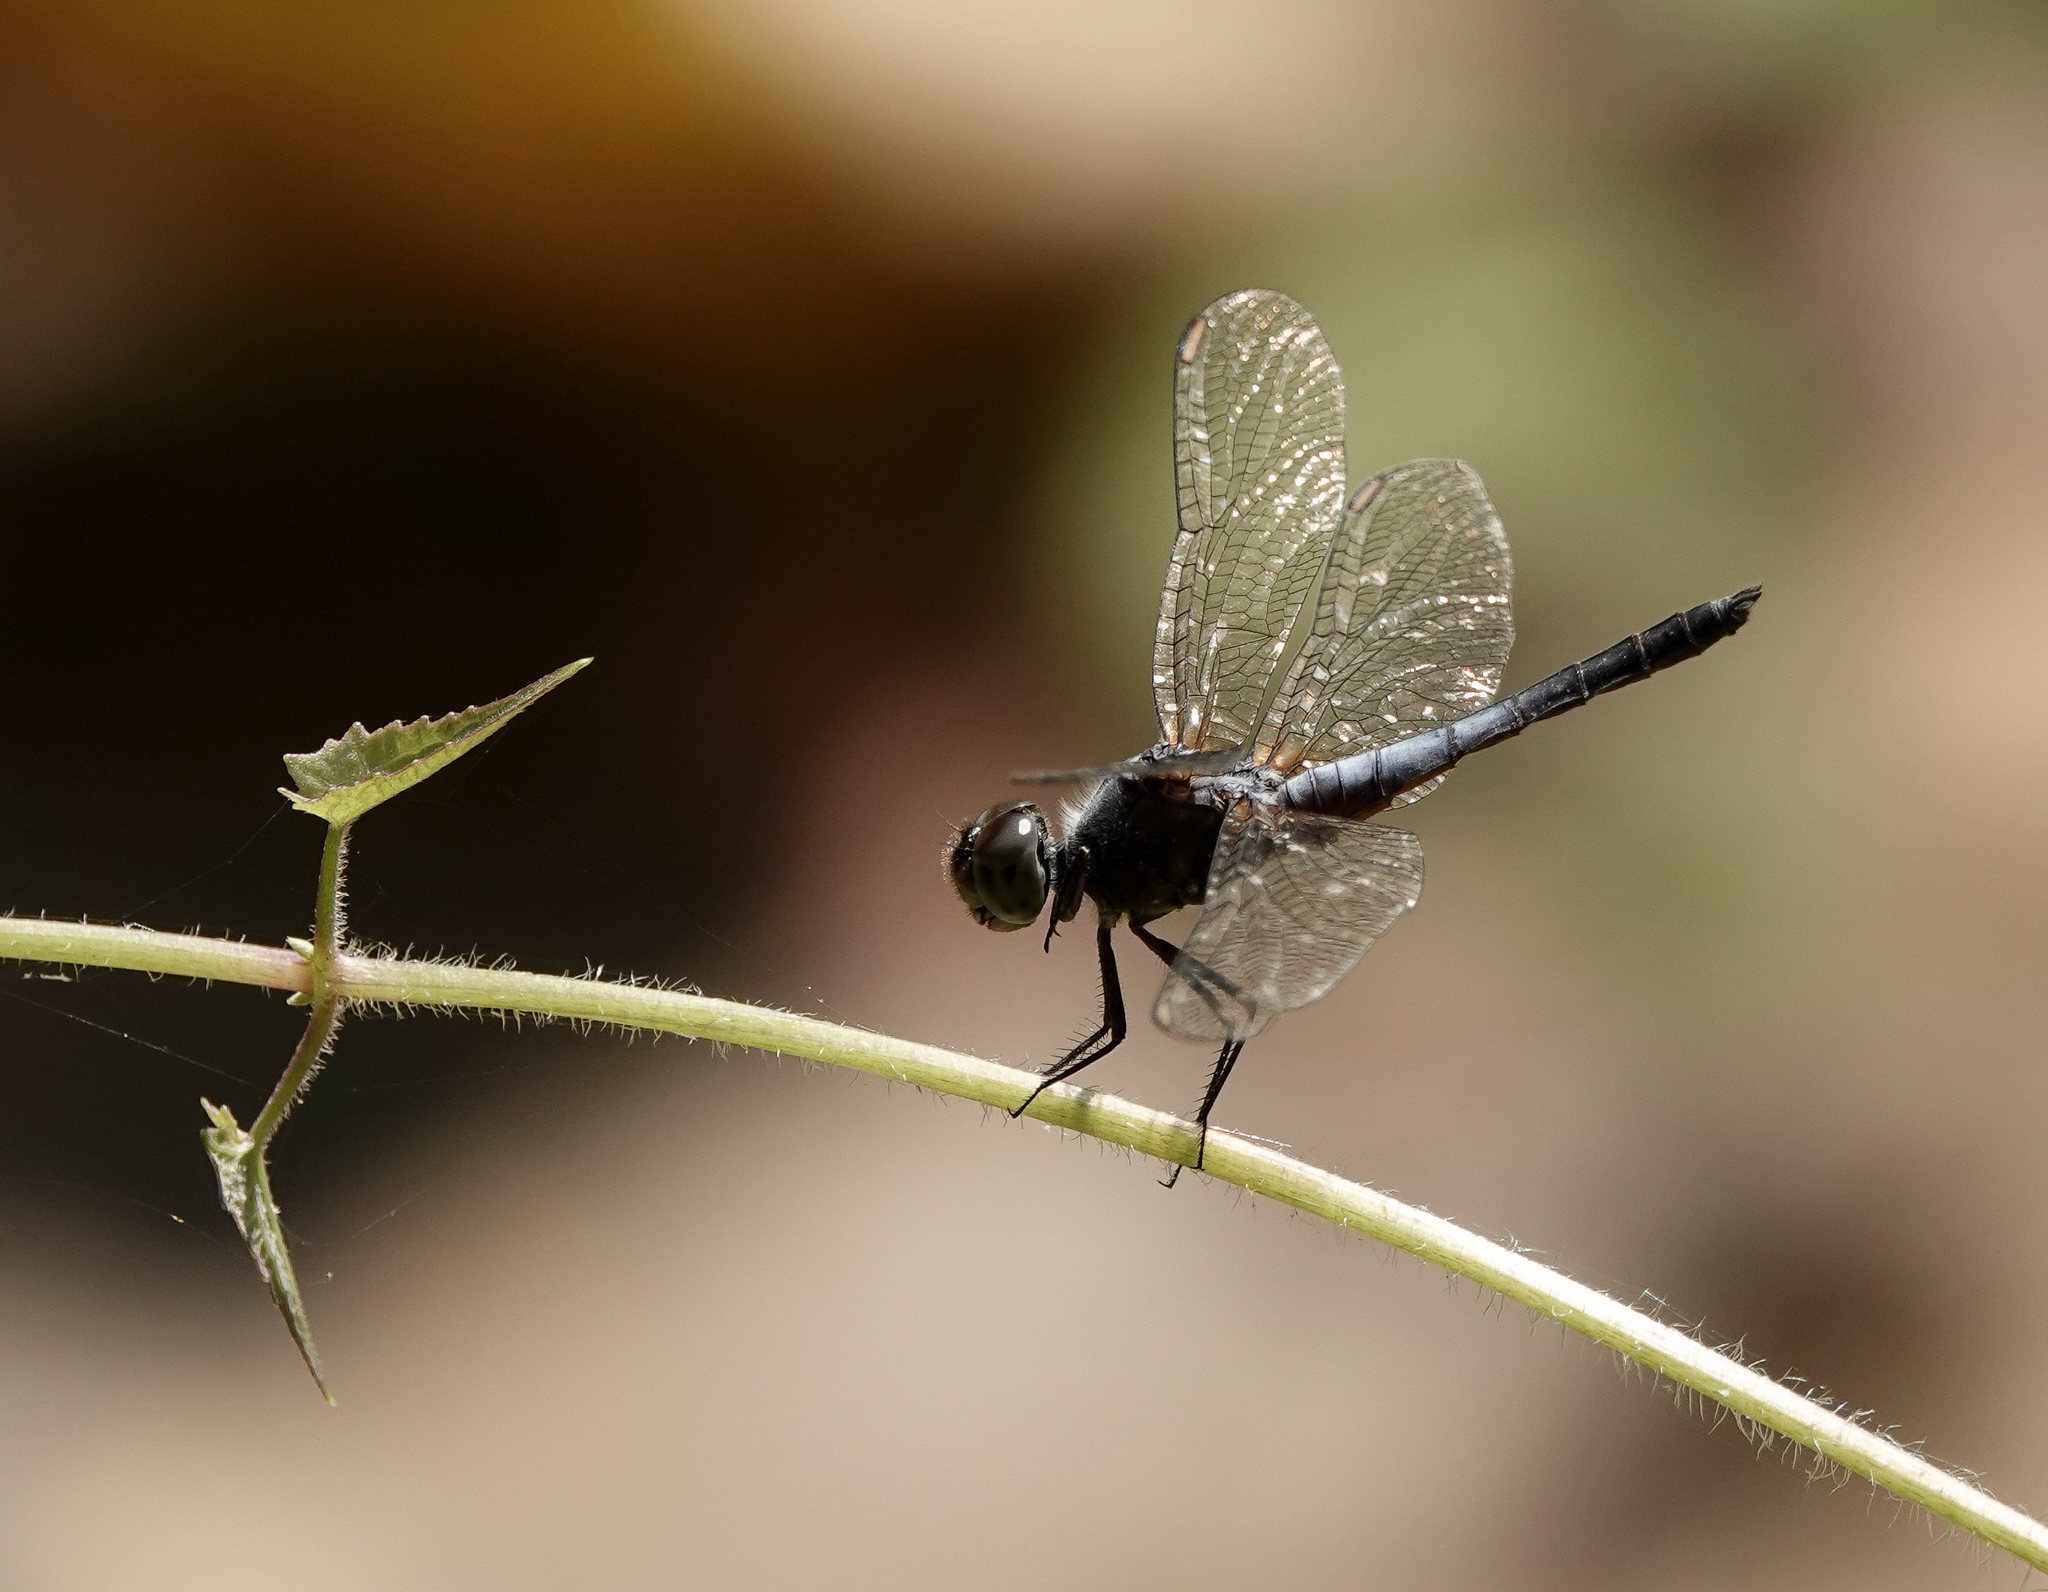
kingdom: Animalia
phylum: Arthropoda
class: Insecta
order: Odonata
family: Libellulidae
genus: Brachydiplax
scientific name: Brachydiplax chalybea
